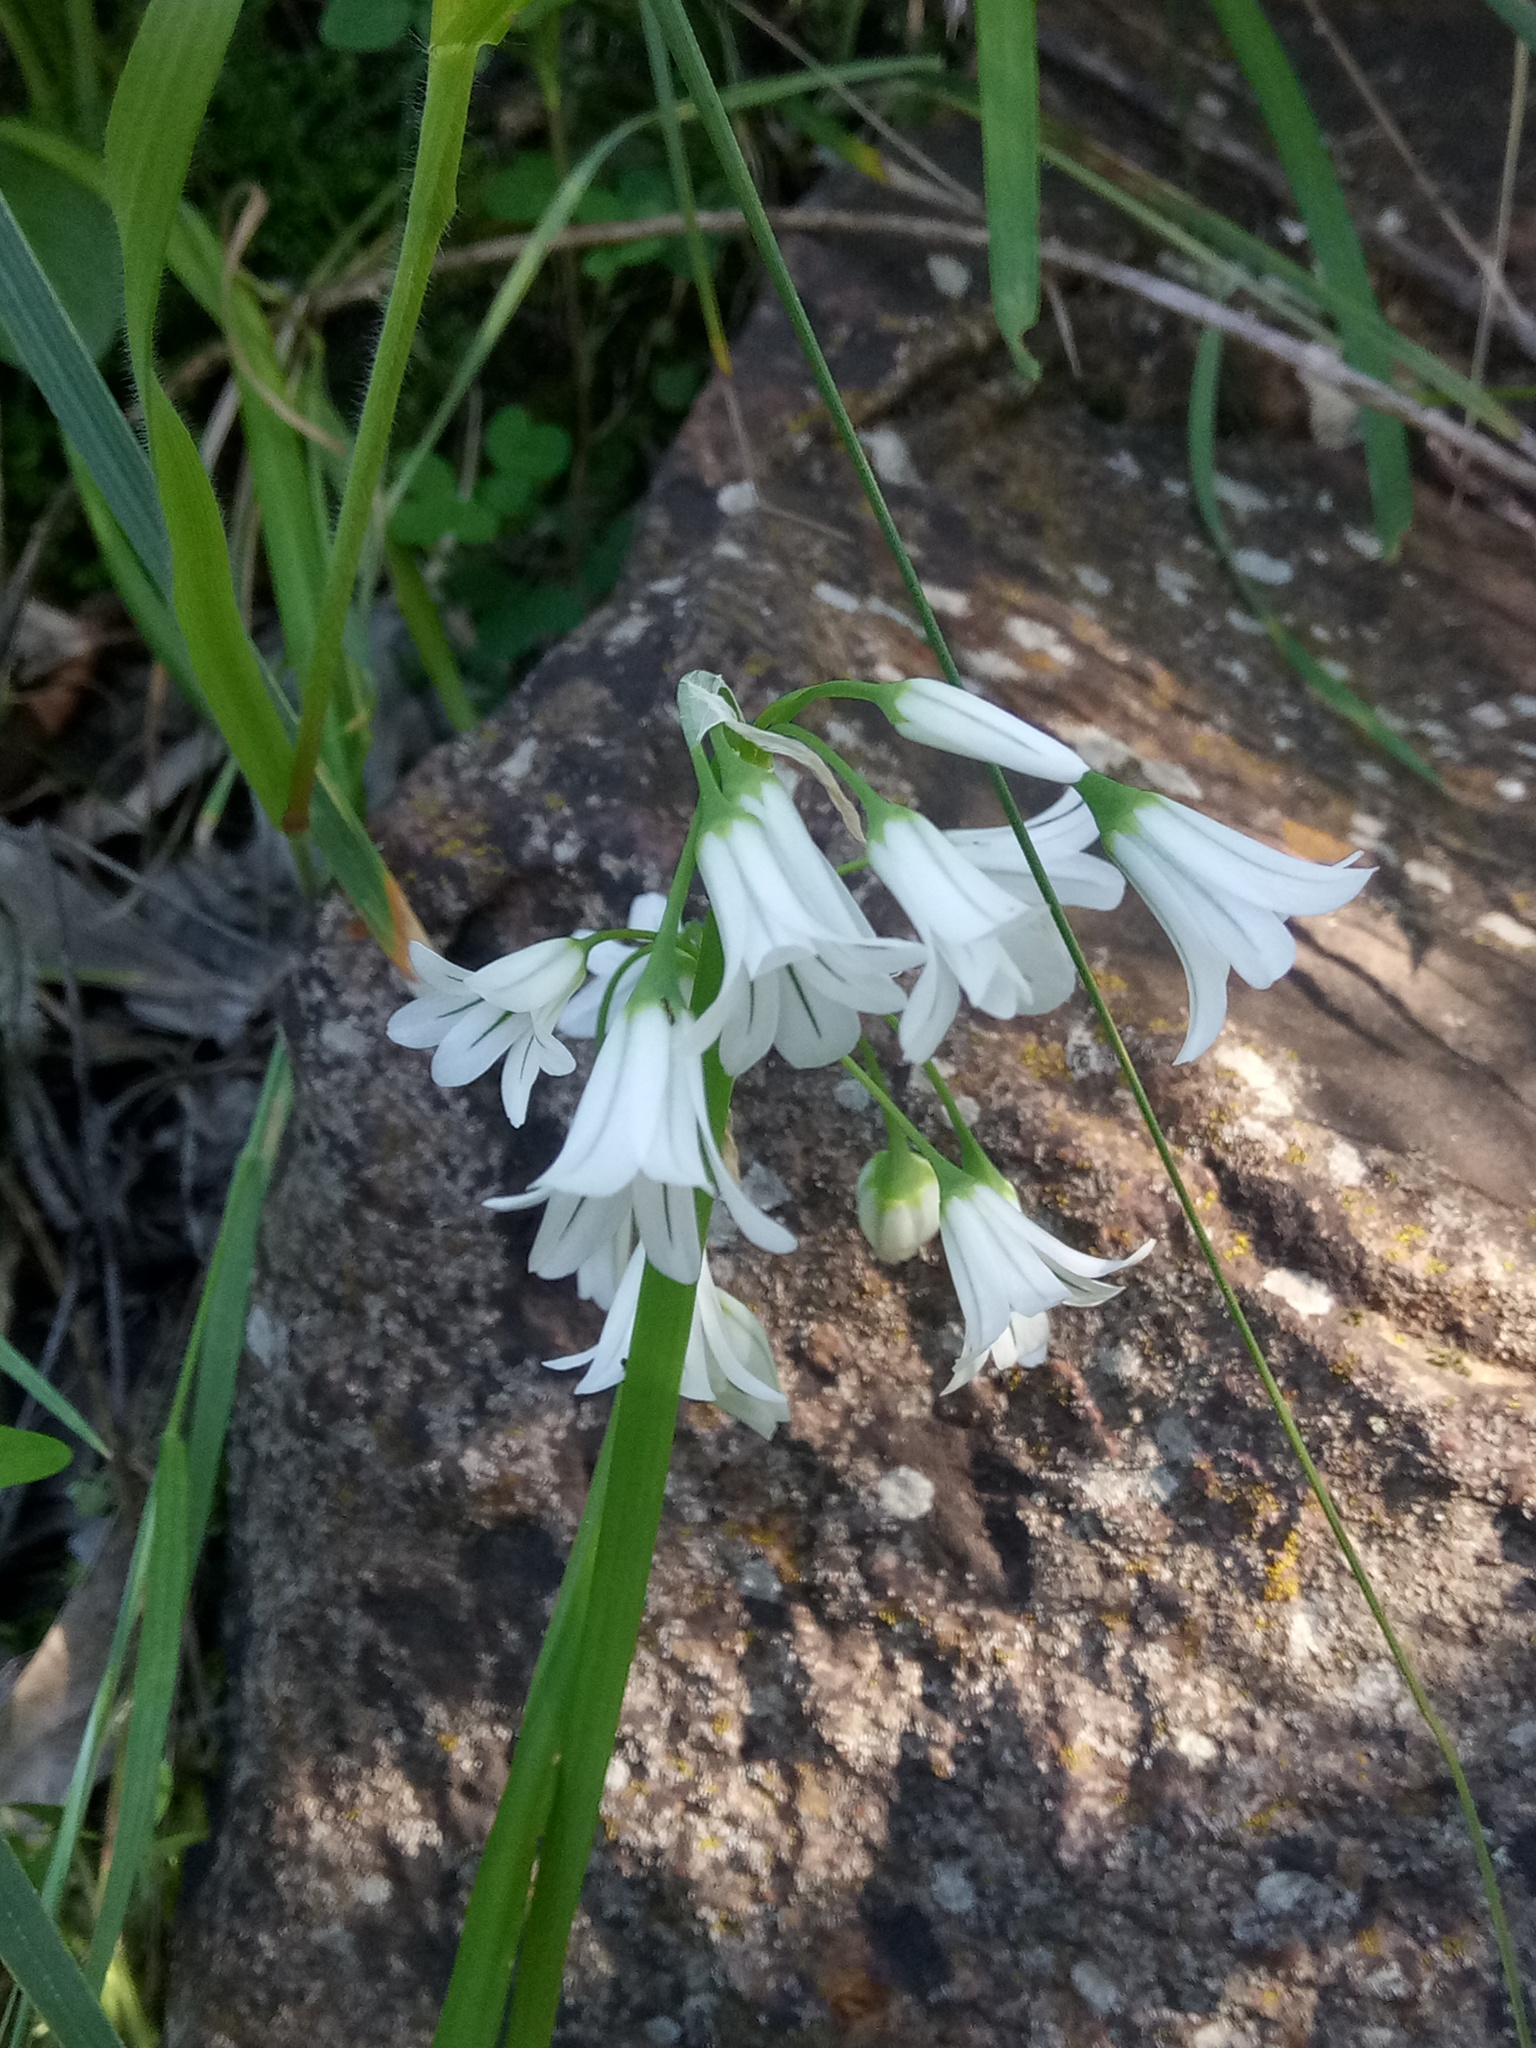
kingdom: Plantae
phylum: Tracheophyta
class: Liliopsida
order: Asparagales
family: Amaryllidaceae
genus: Allium
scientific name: Allium triquetrum
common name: Three-cornered garlic
